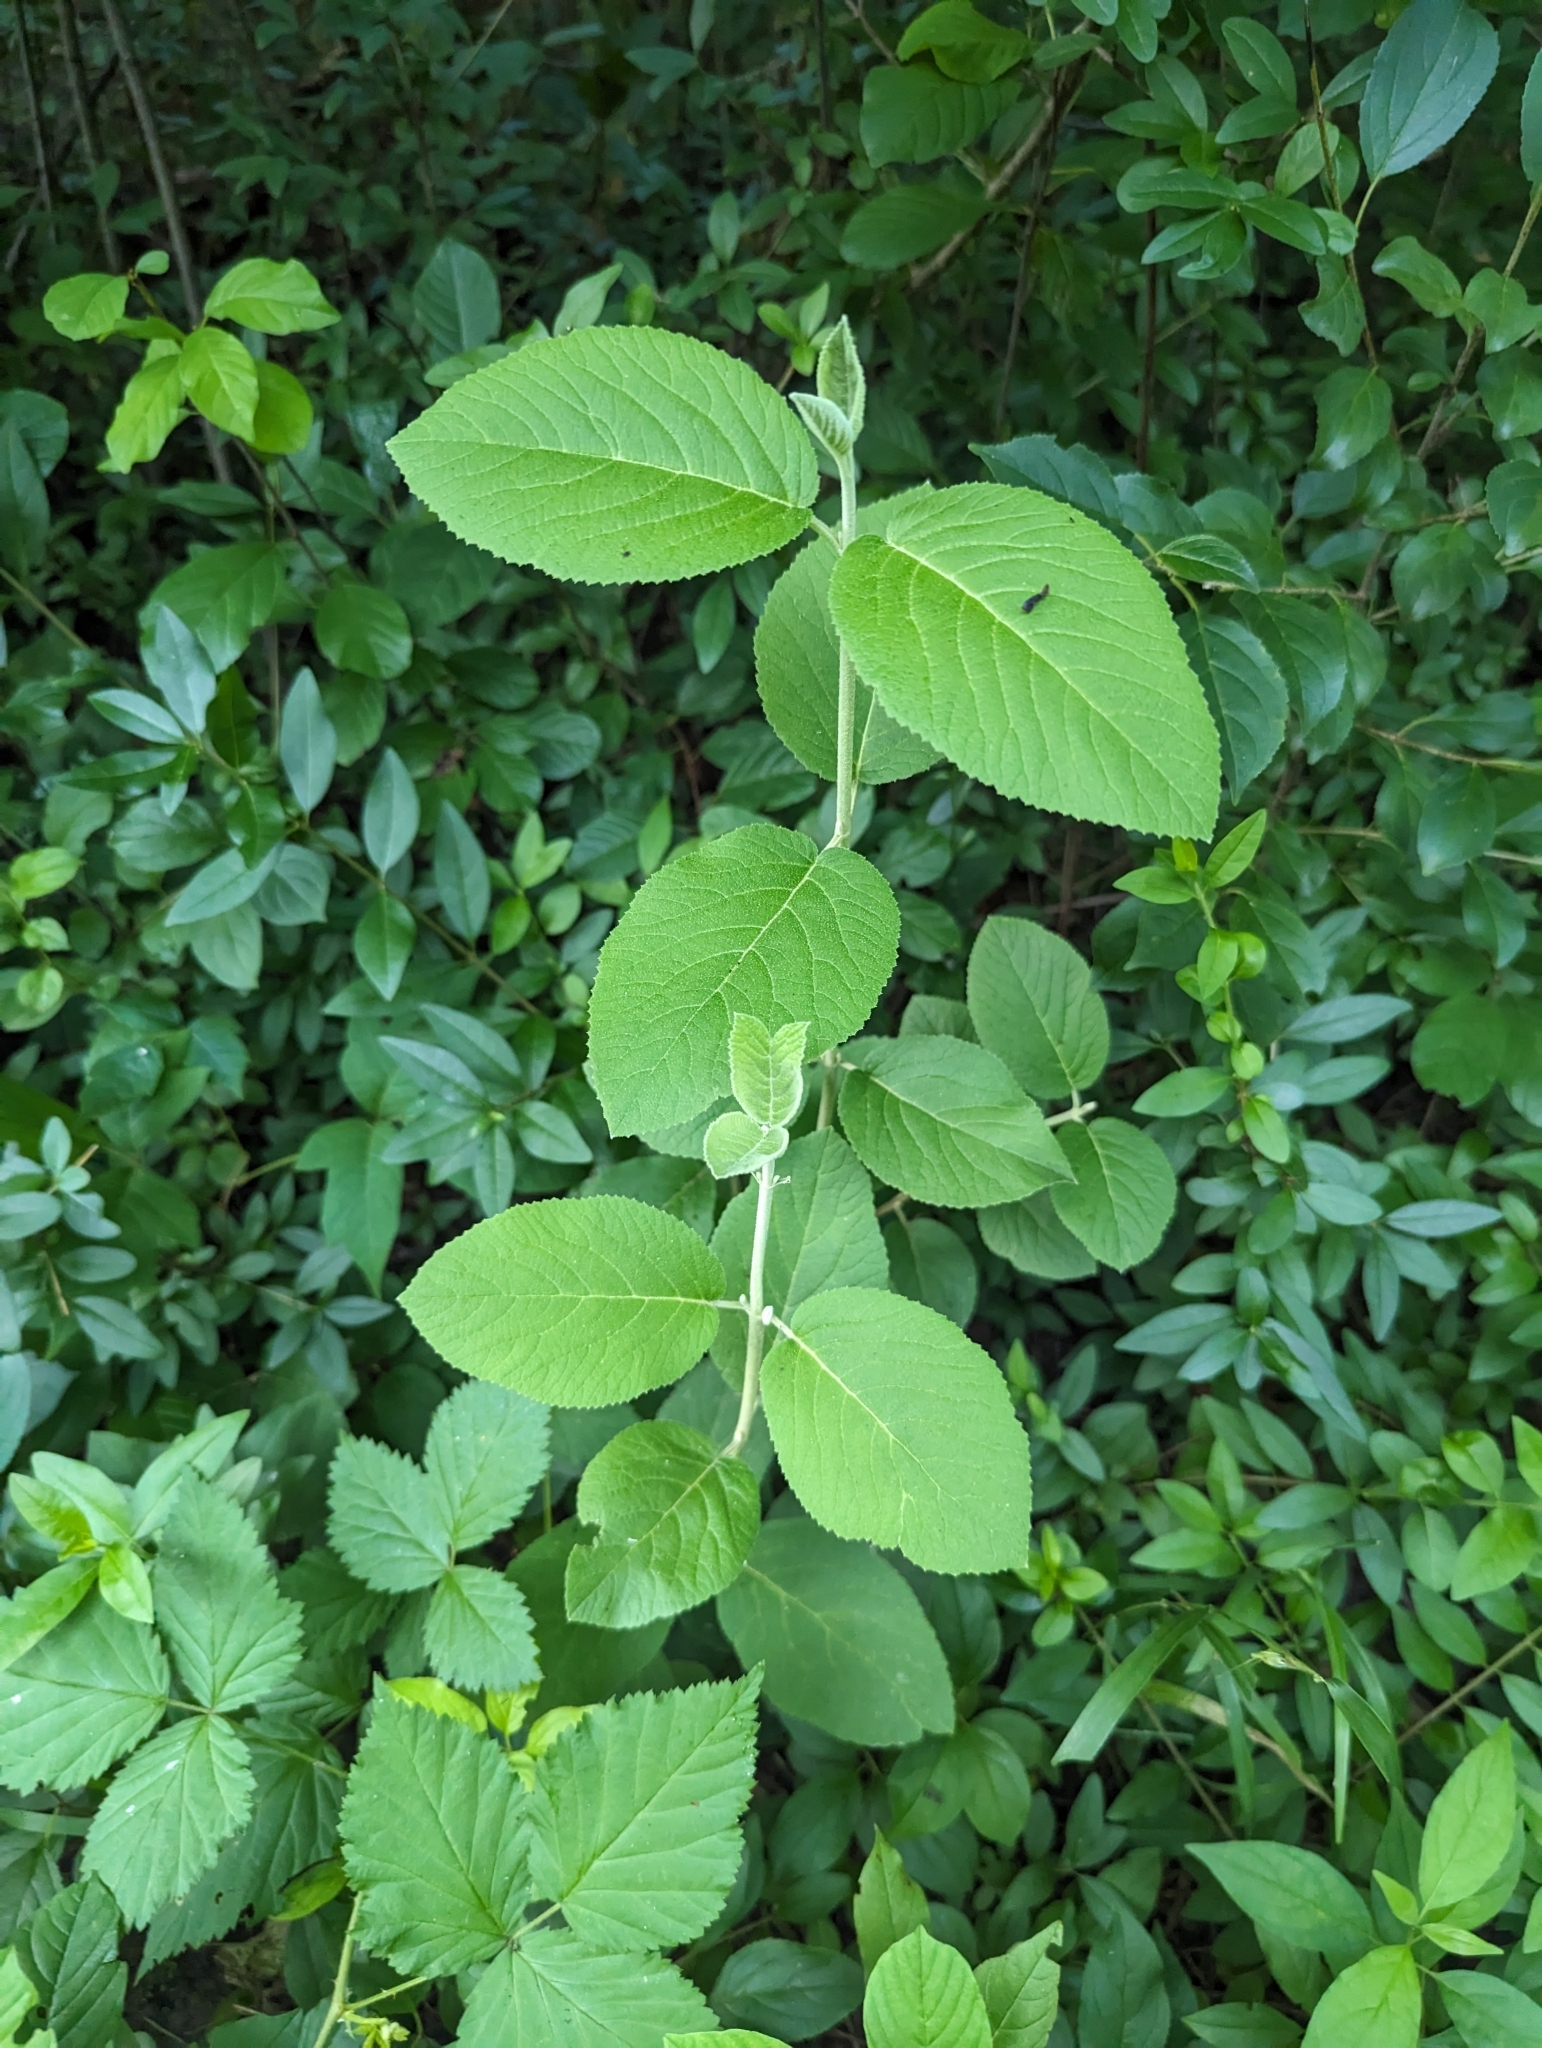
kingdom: Plantae
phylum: Tracheophyta
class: Magnoliopsida
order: Dipsacales
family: Viburnaceae
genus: Viburnum
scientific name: Viburnum lantana
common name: Wayfaring tree
